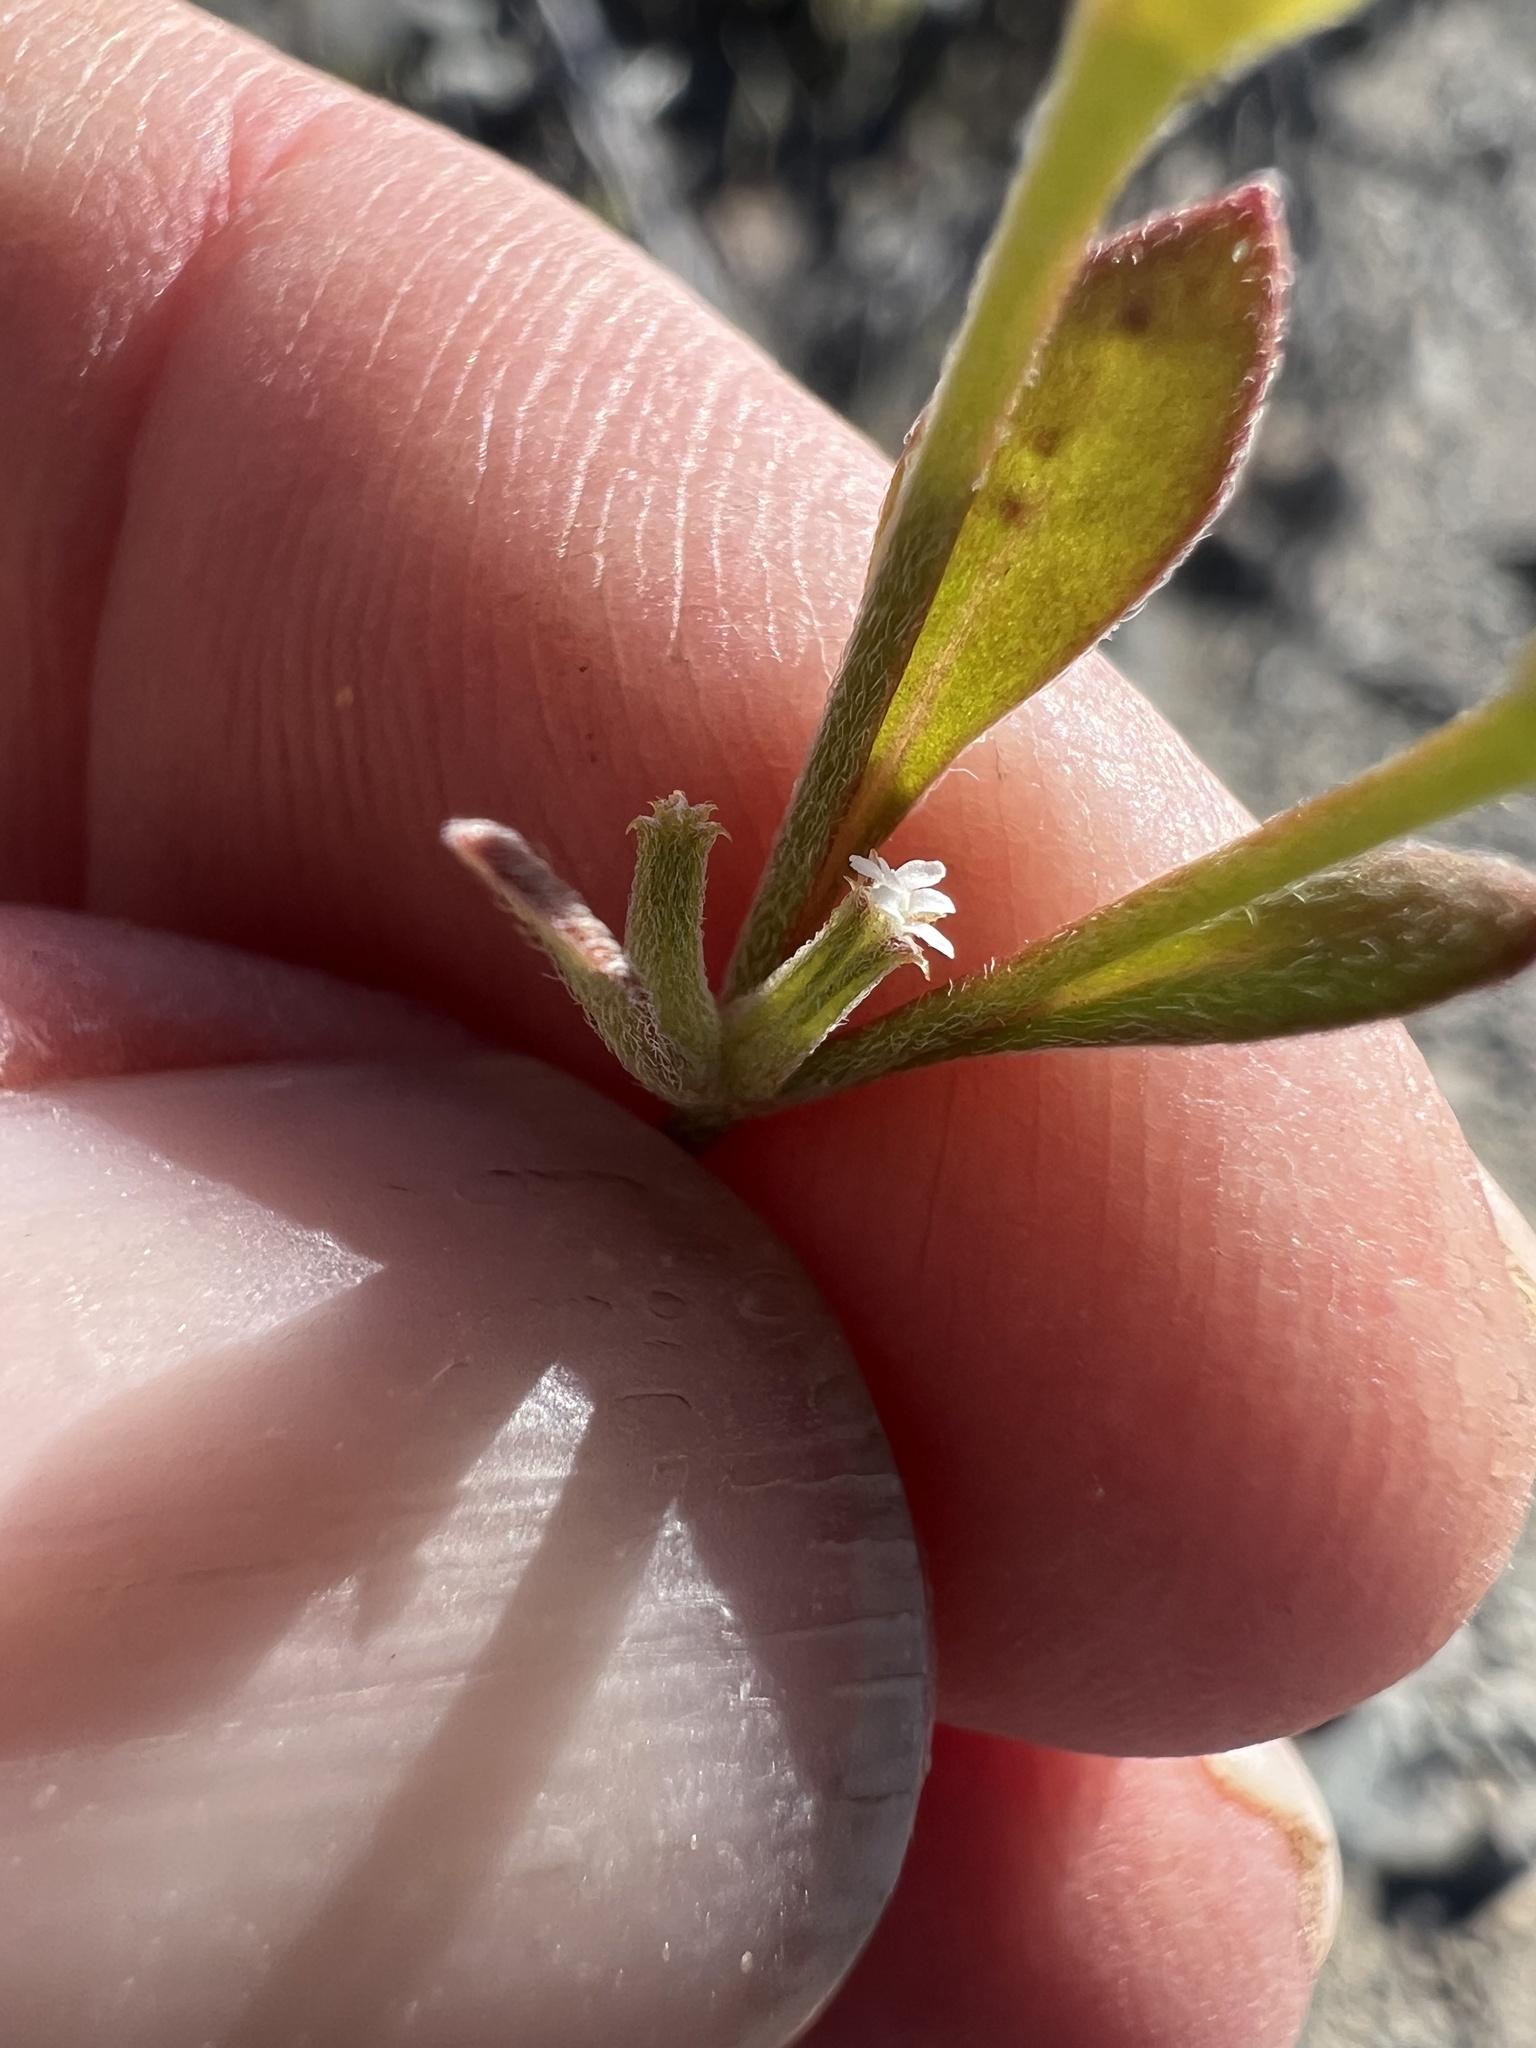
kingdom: Plantae
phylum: Tracheophyta
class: Magnoliopsida
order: Caryophyllales
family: Polygonaceae
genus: Chorizanthe
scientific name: Chorizanthe brevicornu
